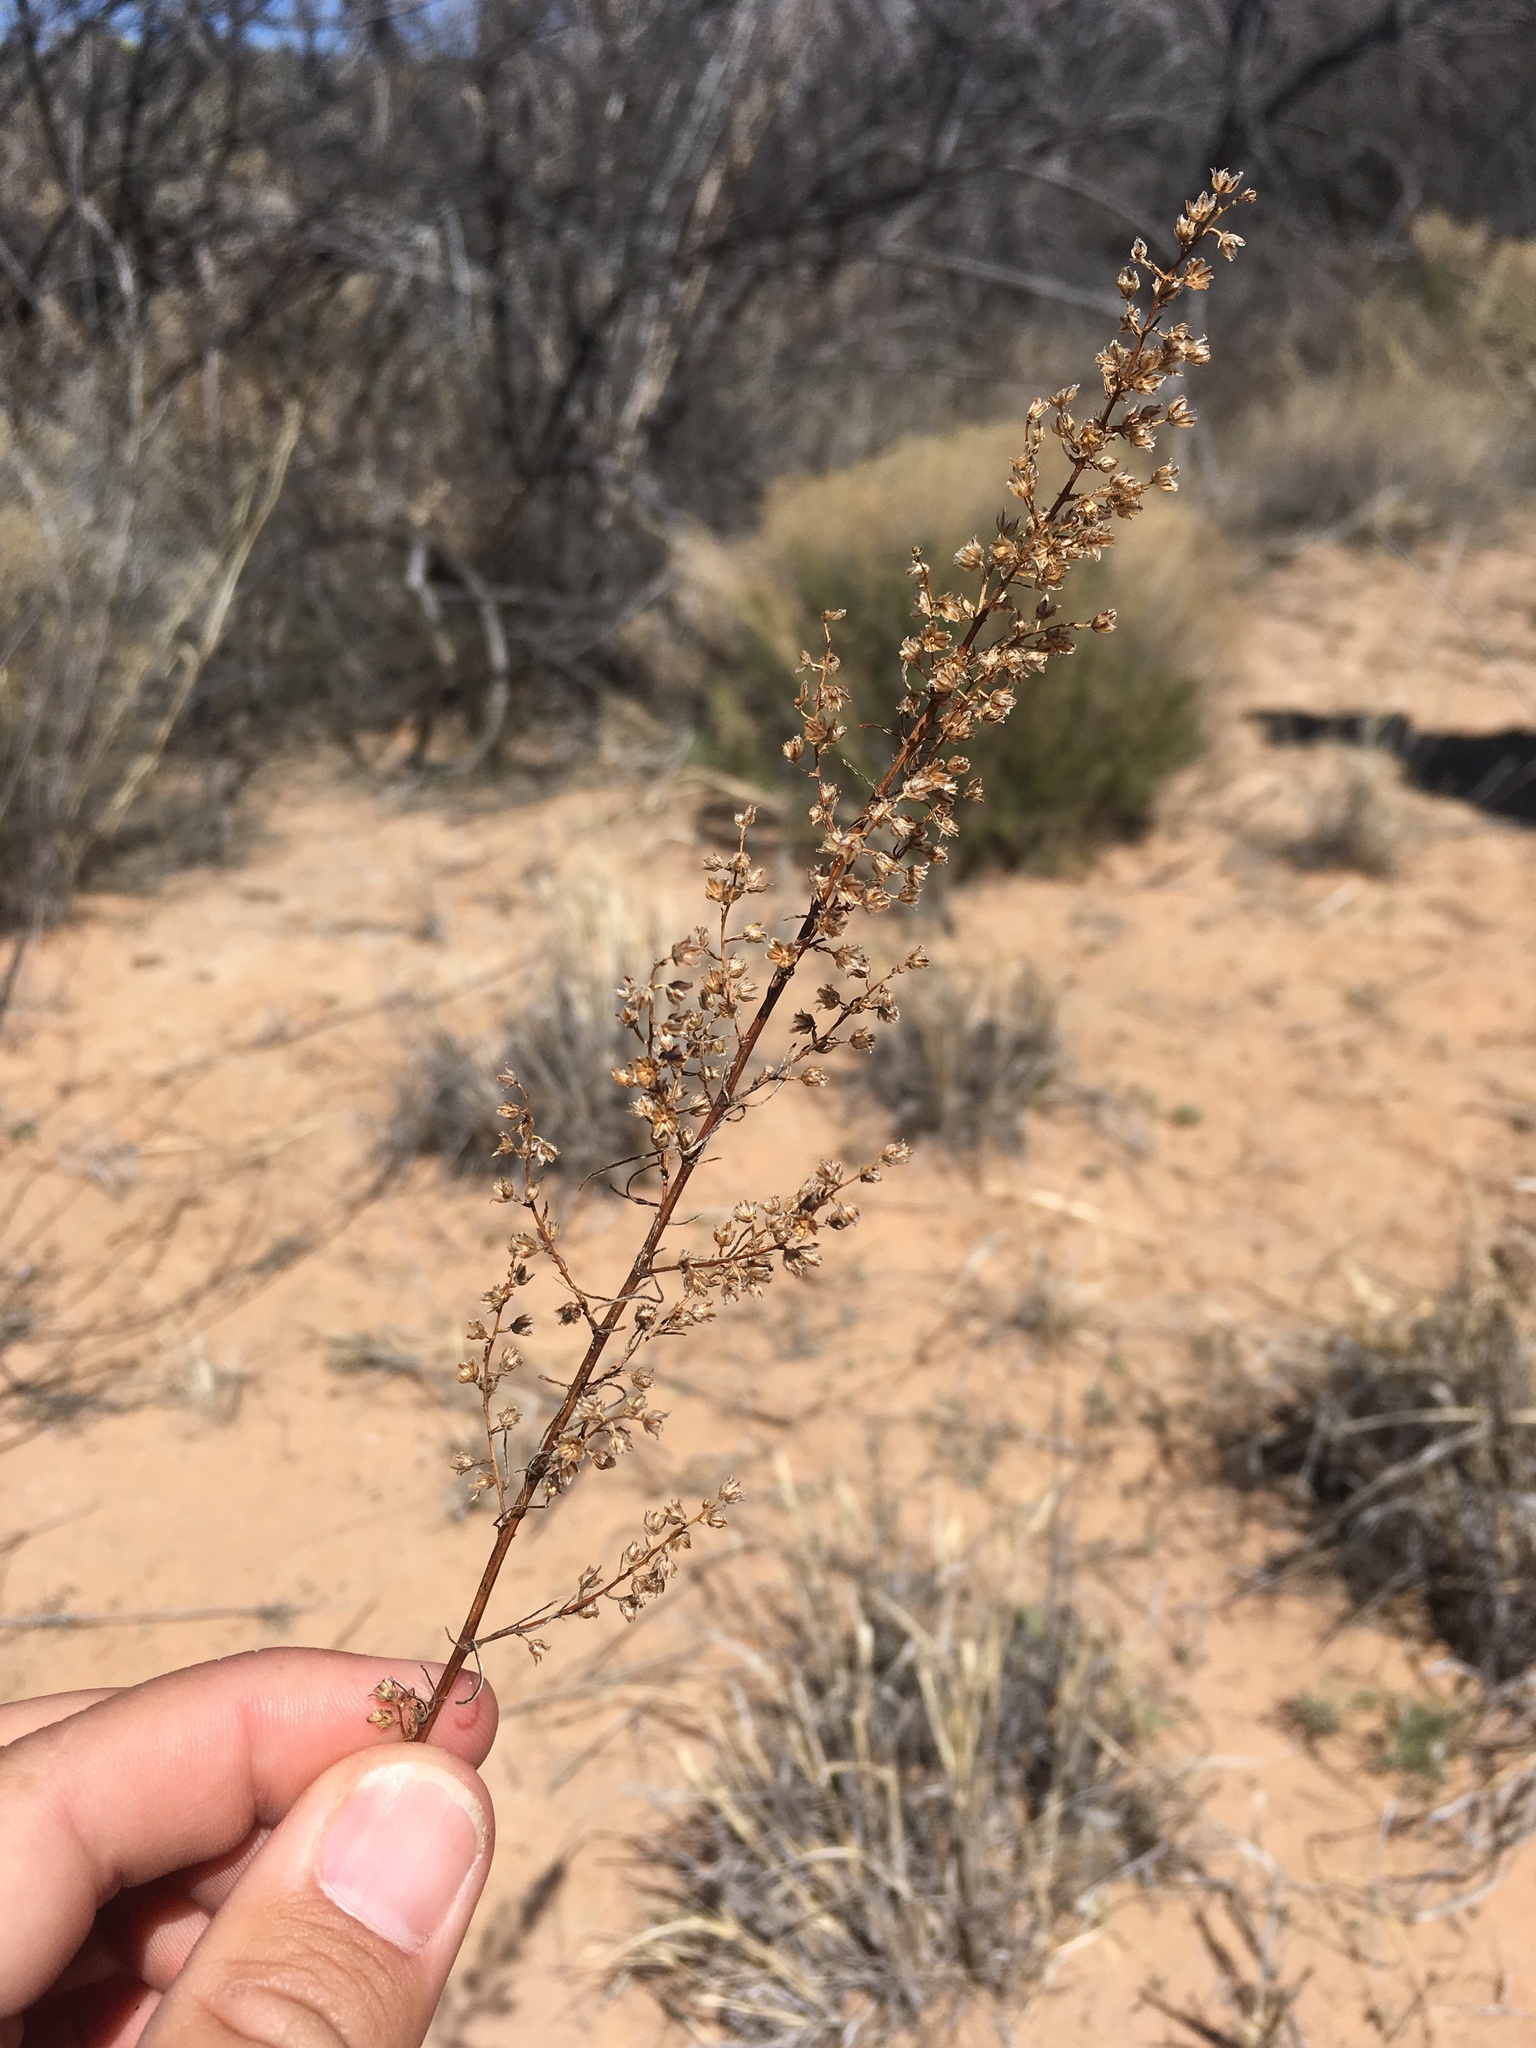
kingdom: Plantae
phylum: Tracheophyta
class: Magnoliopsida
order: Asterales
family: Asteraceae
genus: Artemisia
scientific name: Artemisia campestris
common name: Field wormwood
